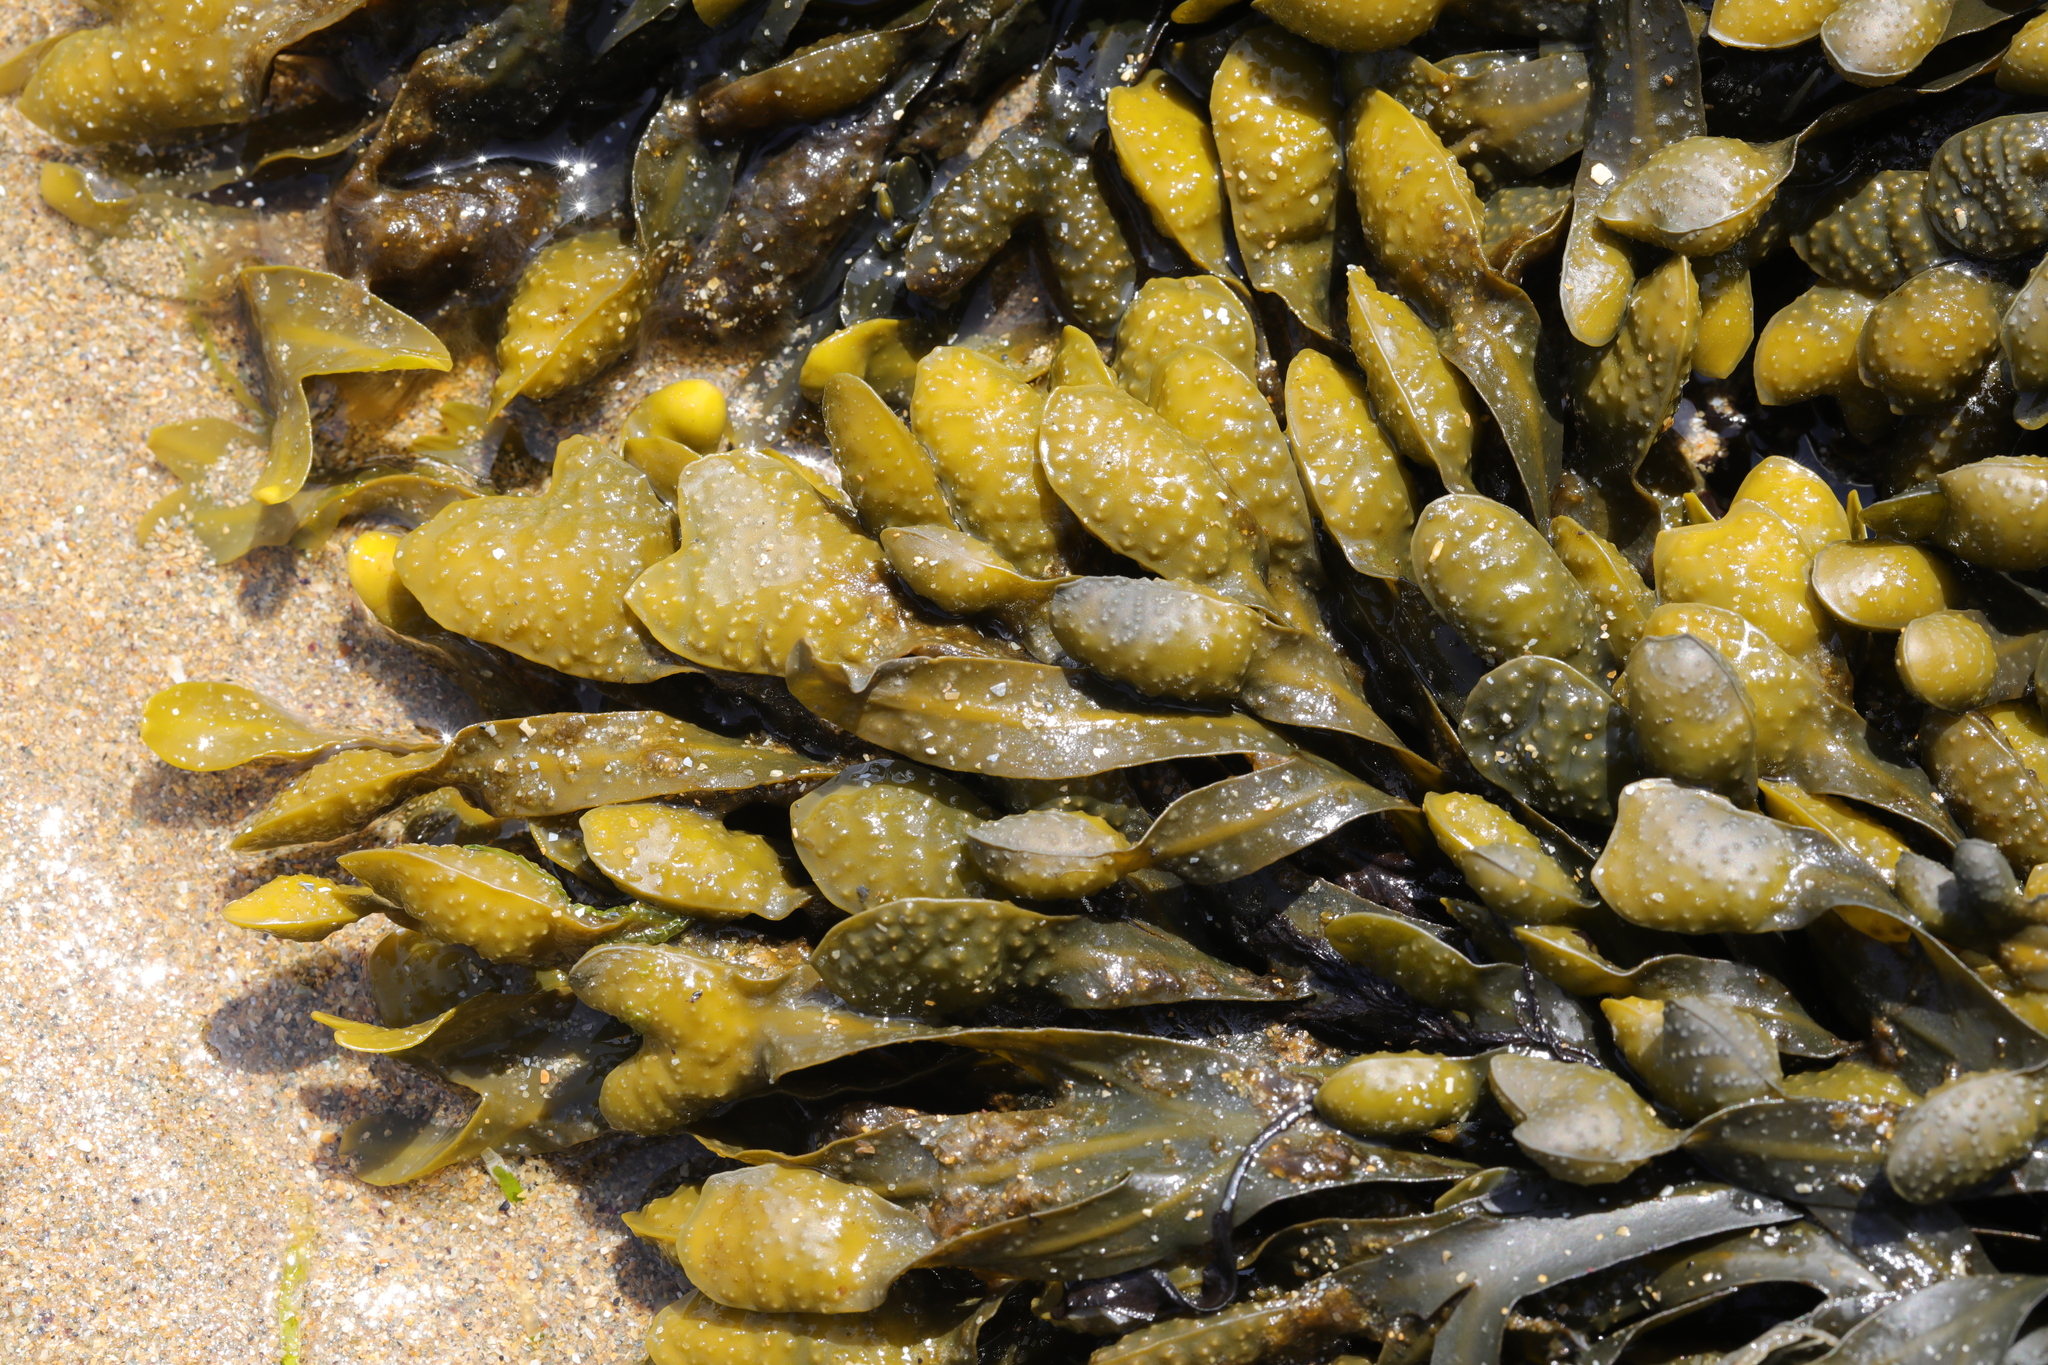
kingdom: Chromista
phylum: Ochrophyta
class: Phaeophyceae
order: Fucales
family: Fucaceae
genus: Fucus
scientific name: Fucus spiralis
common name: Spiral wrack
